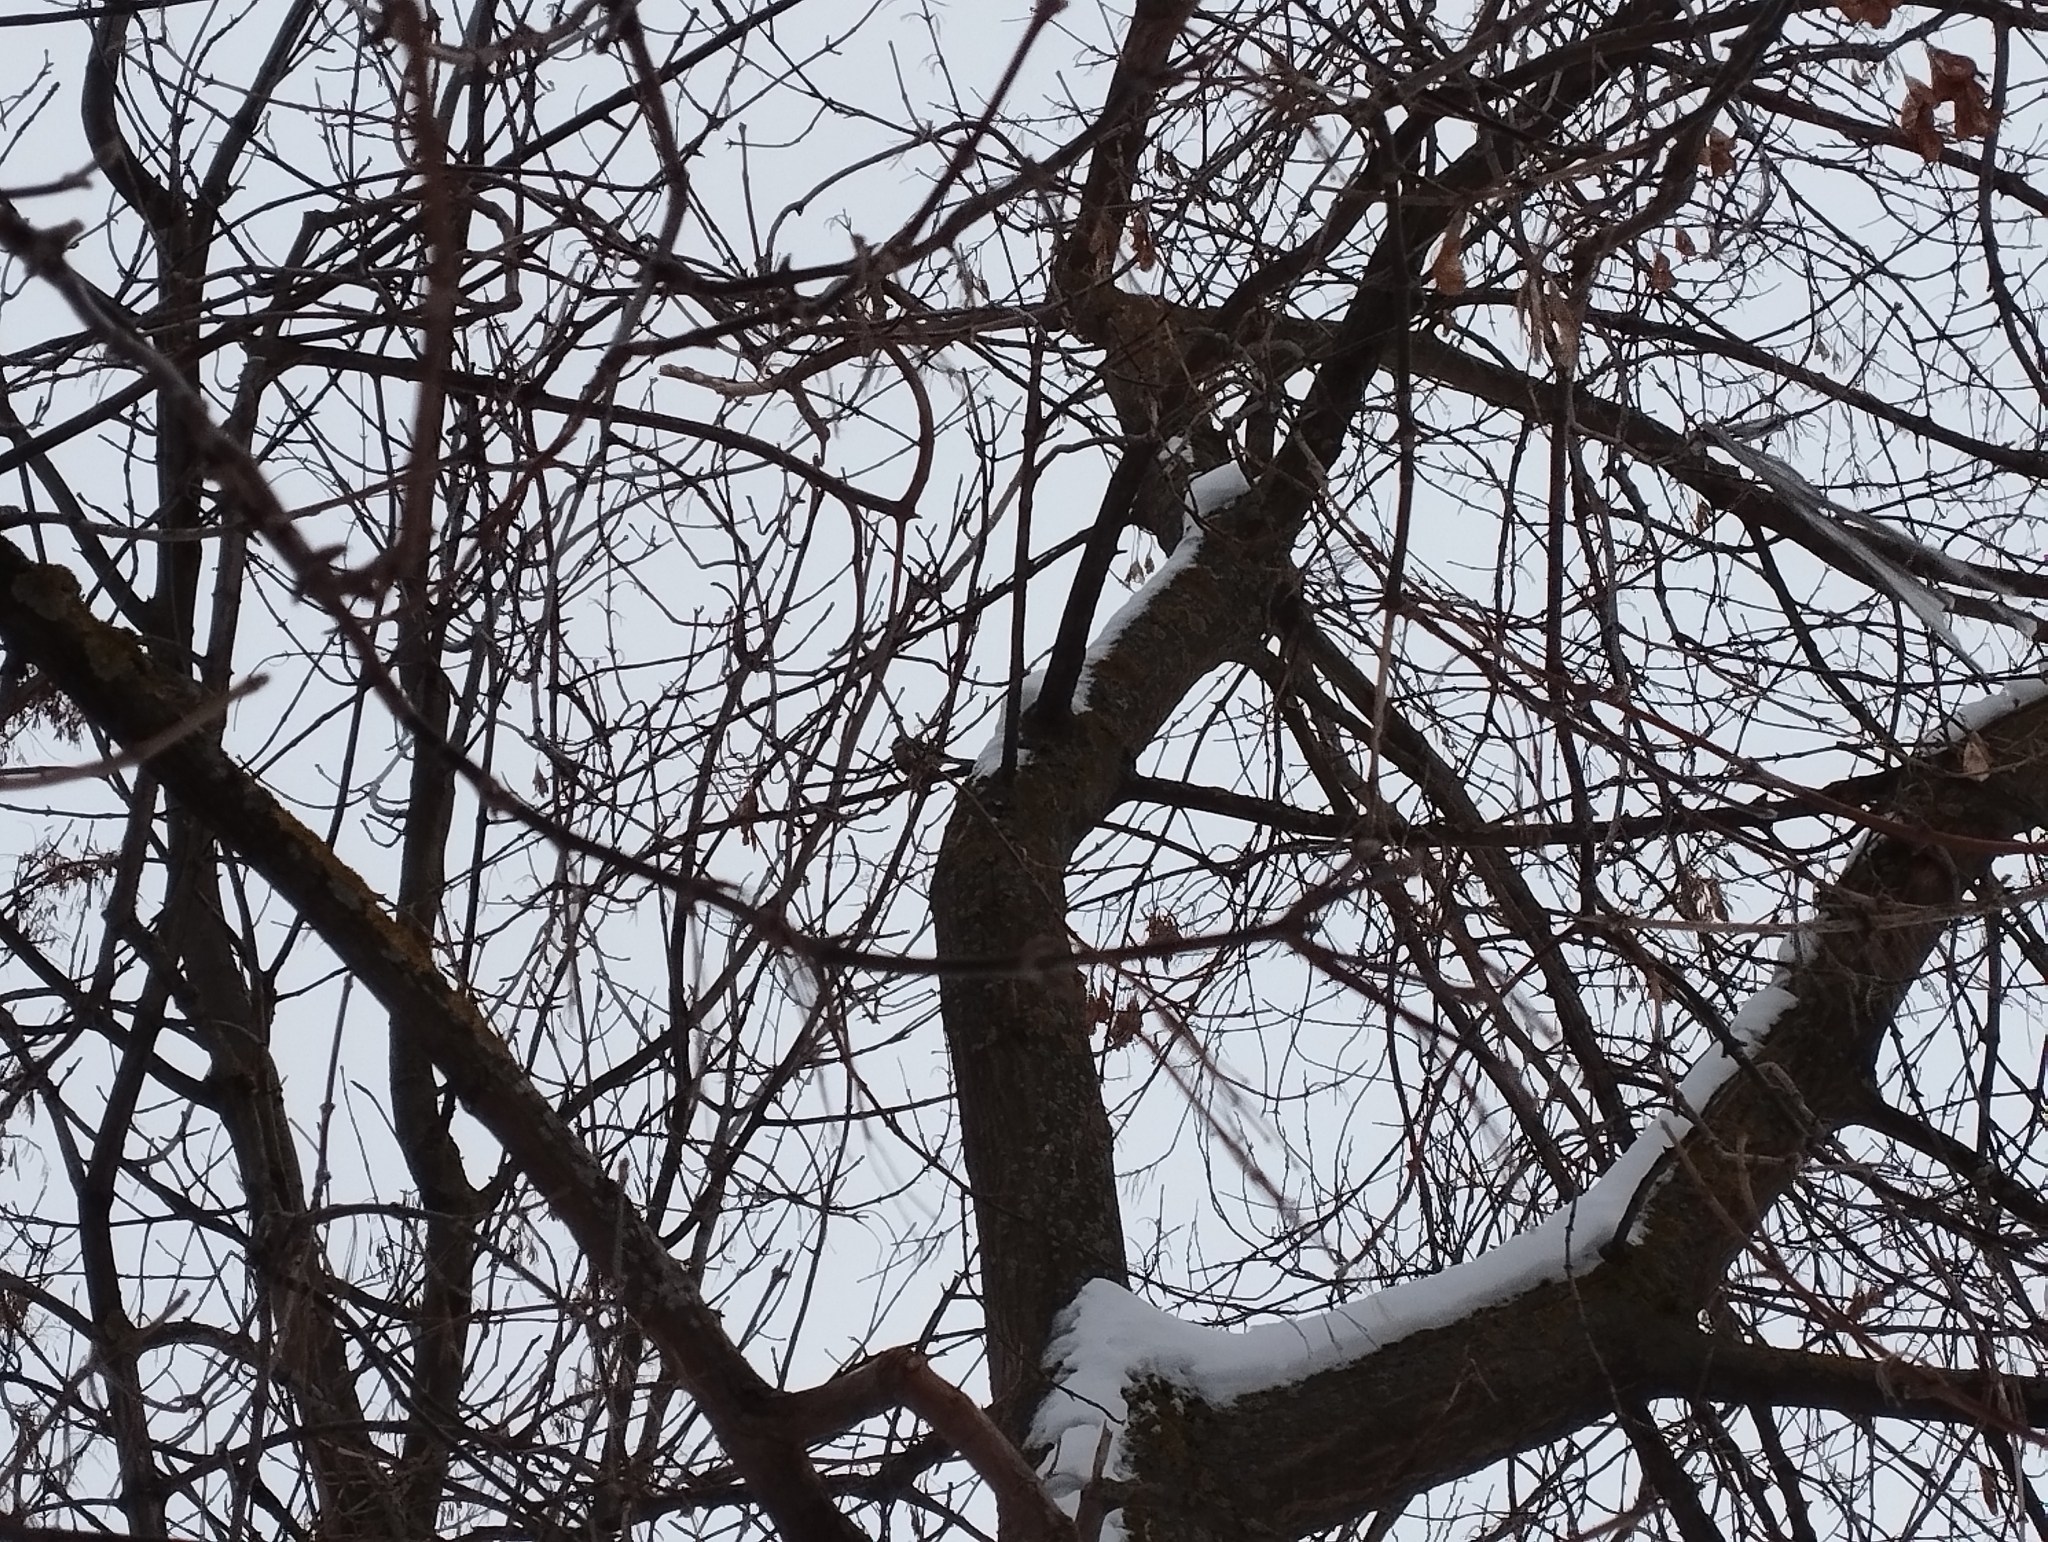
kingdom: Animalia
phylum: Chordata
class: Aves
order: Passeriformes
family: Paridae
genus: Cyanistes
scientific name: Cyanistes caeruleus
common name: Eurasian blue tit
